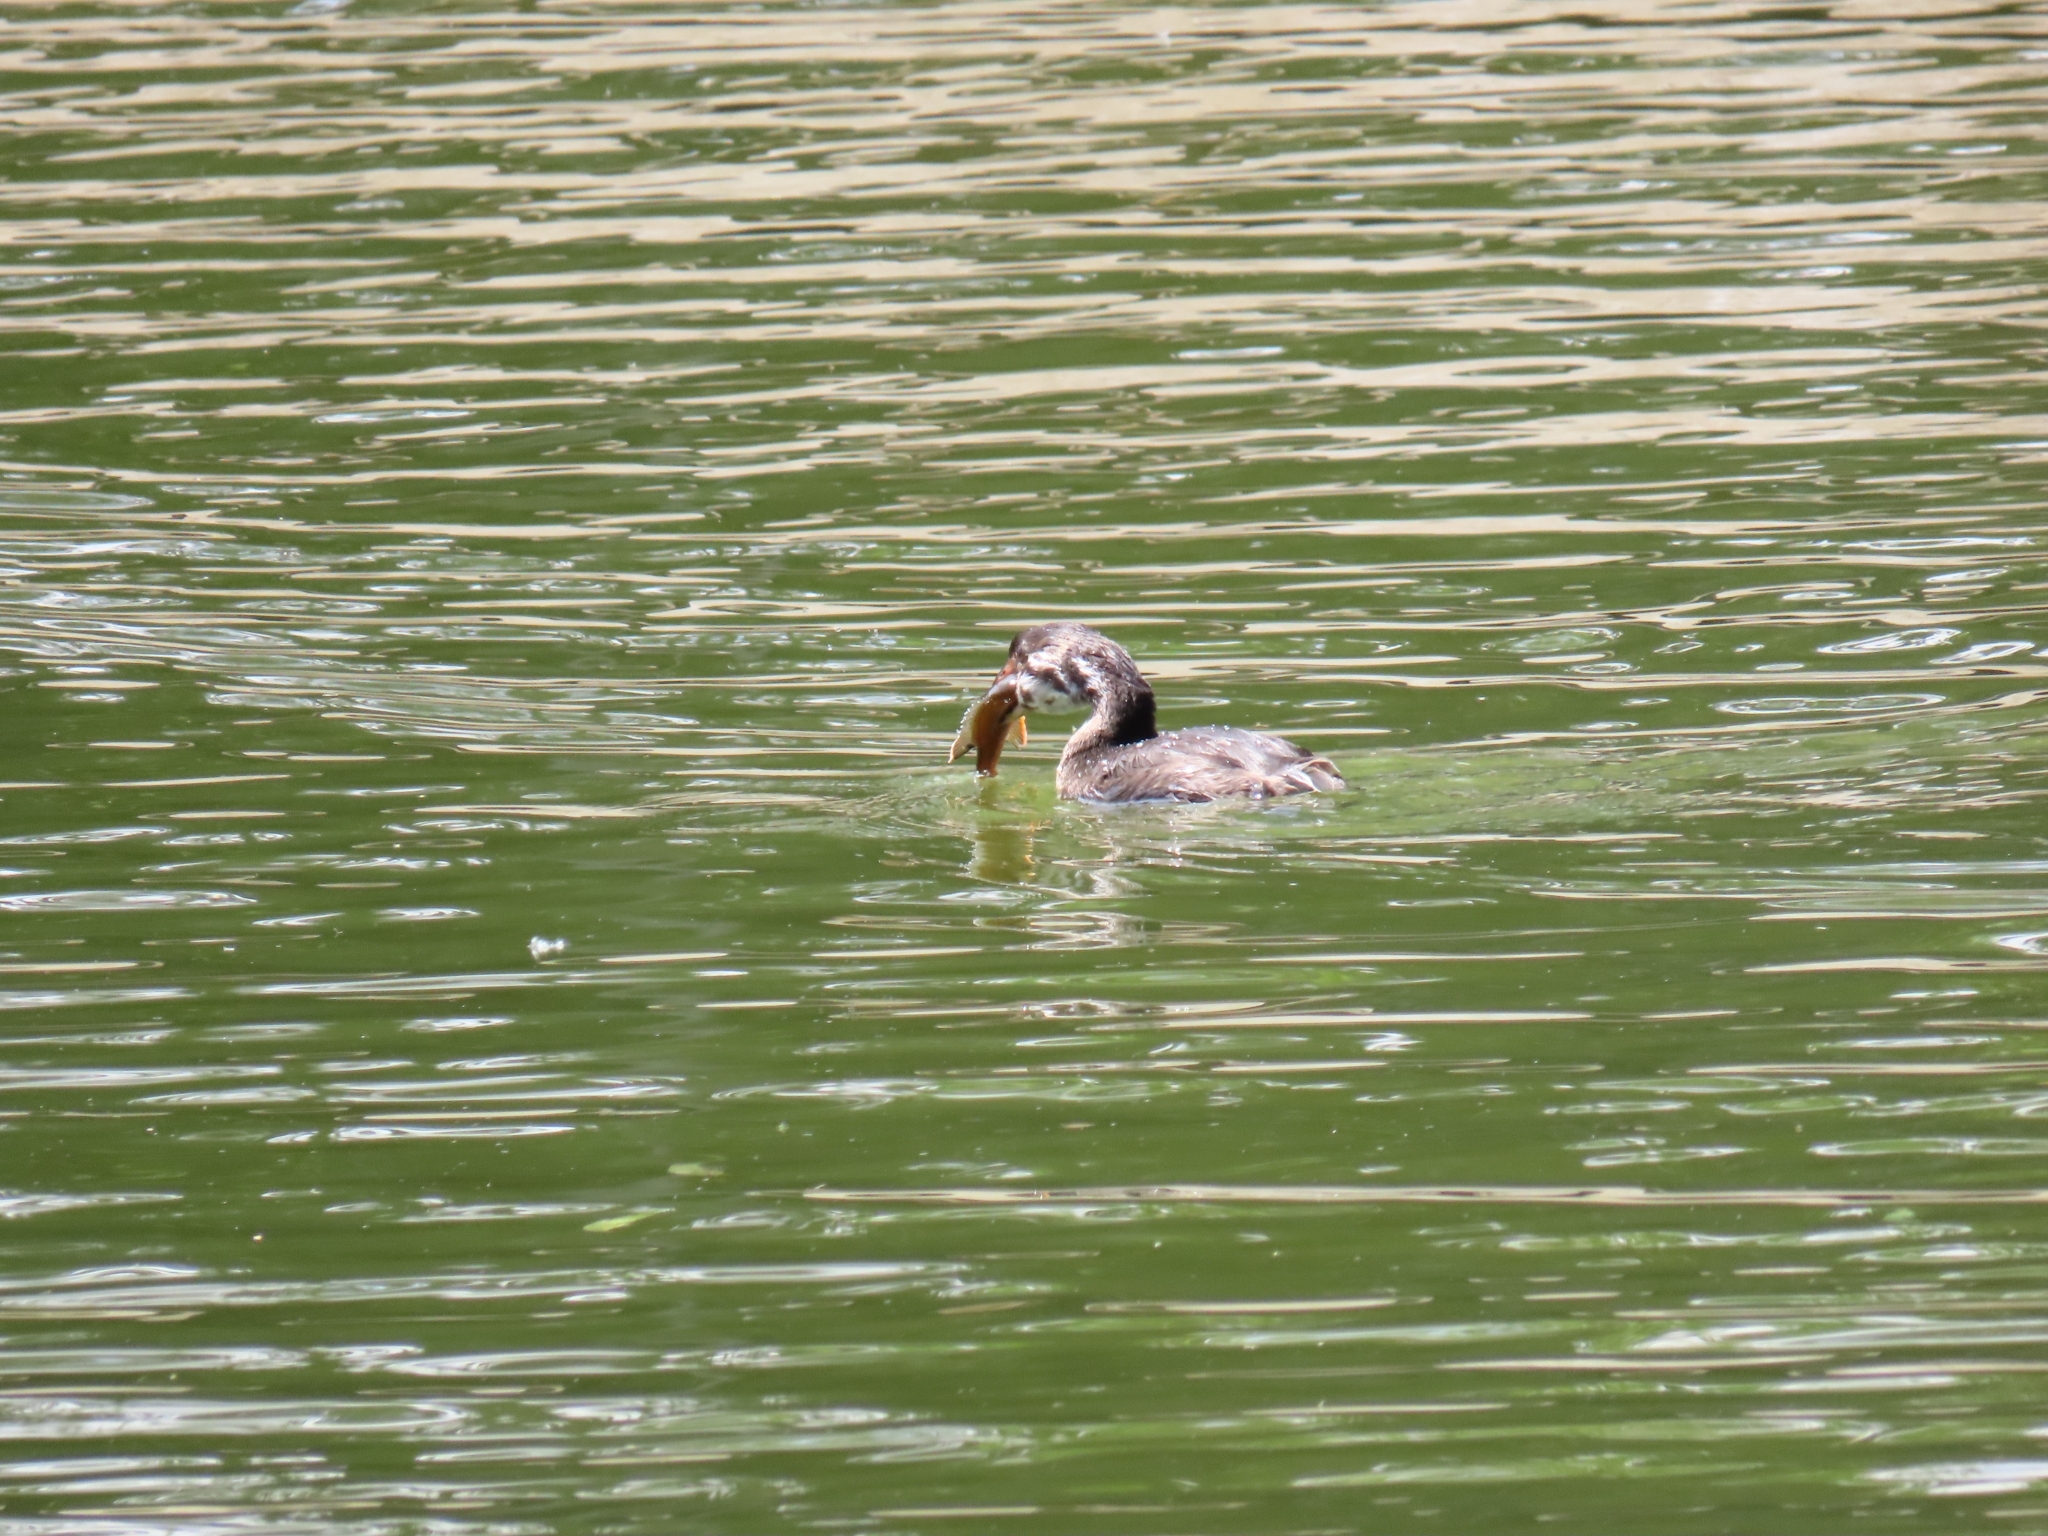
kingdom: Animalia
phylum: Chordata
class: Aves
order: Podicipediformes
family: Podicipedidae
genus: Podilymbus
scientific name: Podilymbus podiceps
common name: Pied-billed grebe
